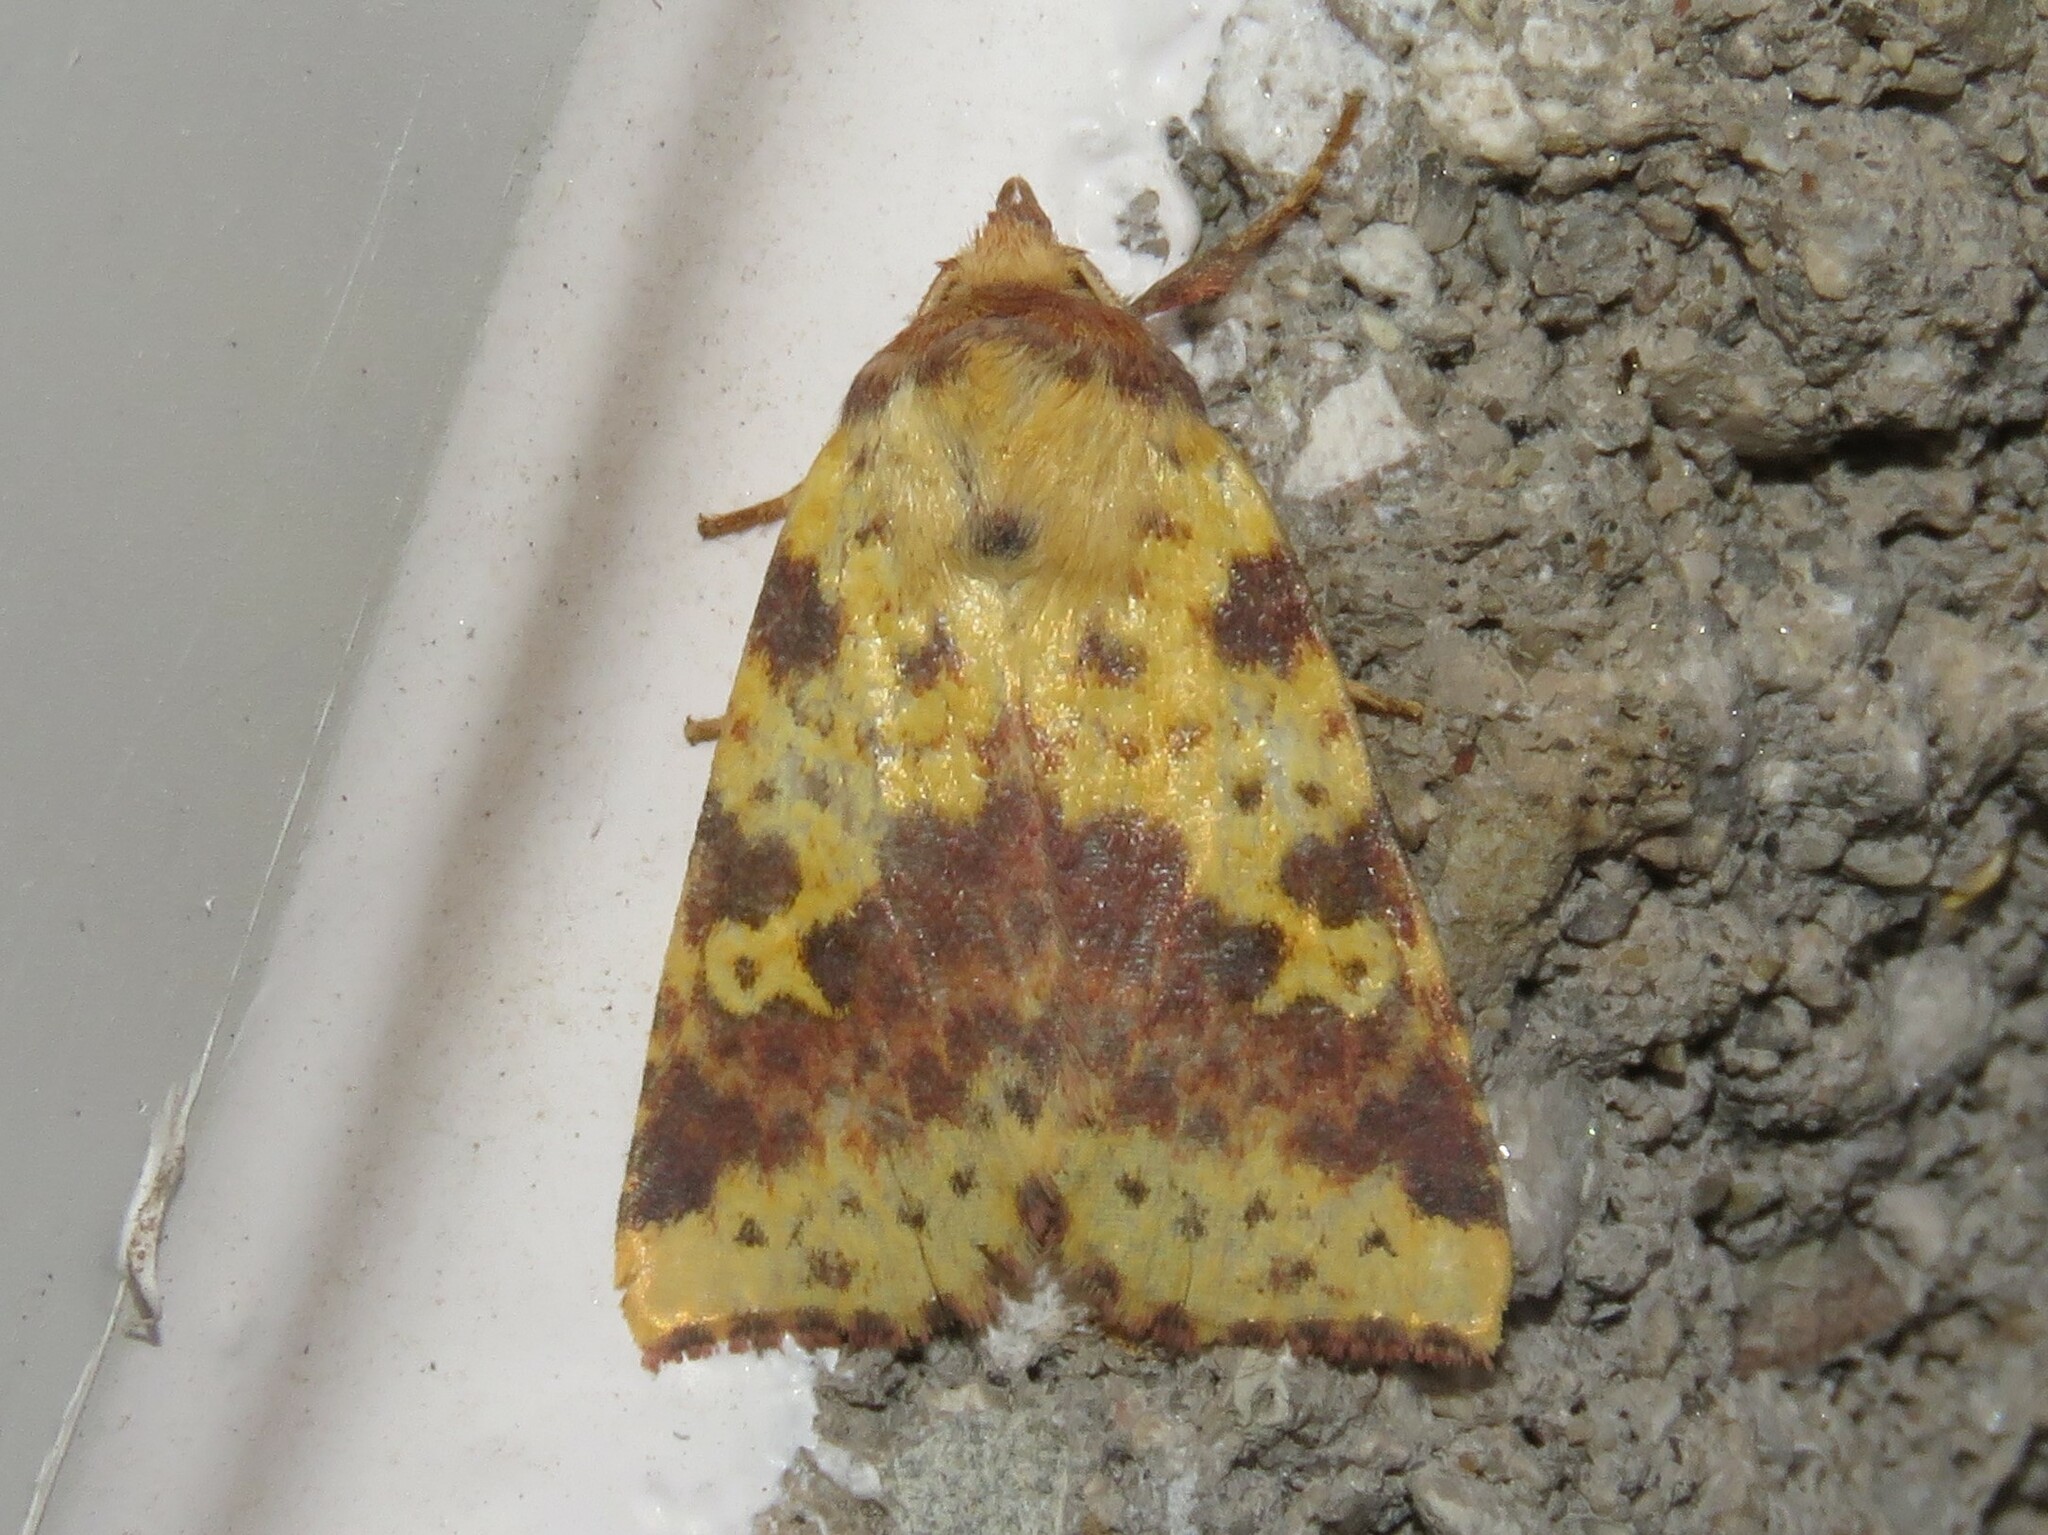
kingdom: Animalia
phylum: Arthropoda
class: Insecta
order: Lepidoptera
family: Noctuidae
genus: Xanthia
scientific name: Xanthia tatago
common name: Pink-banded sallow
